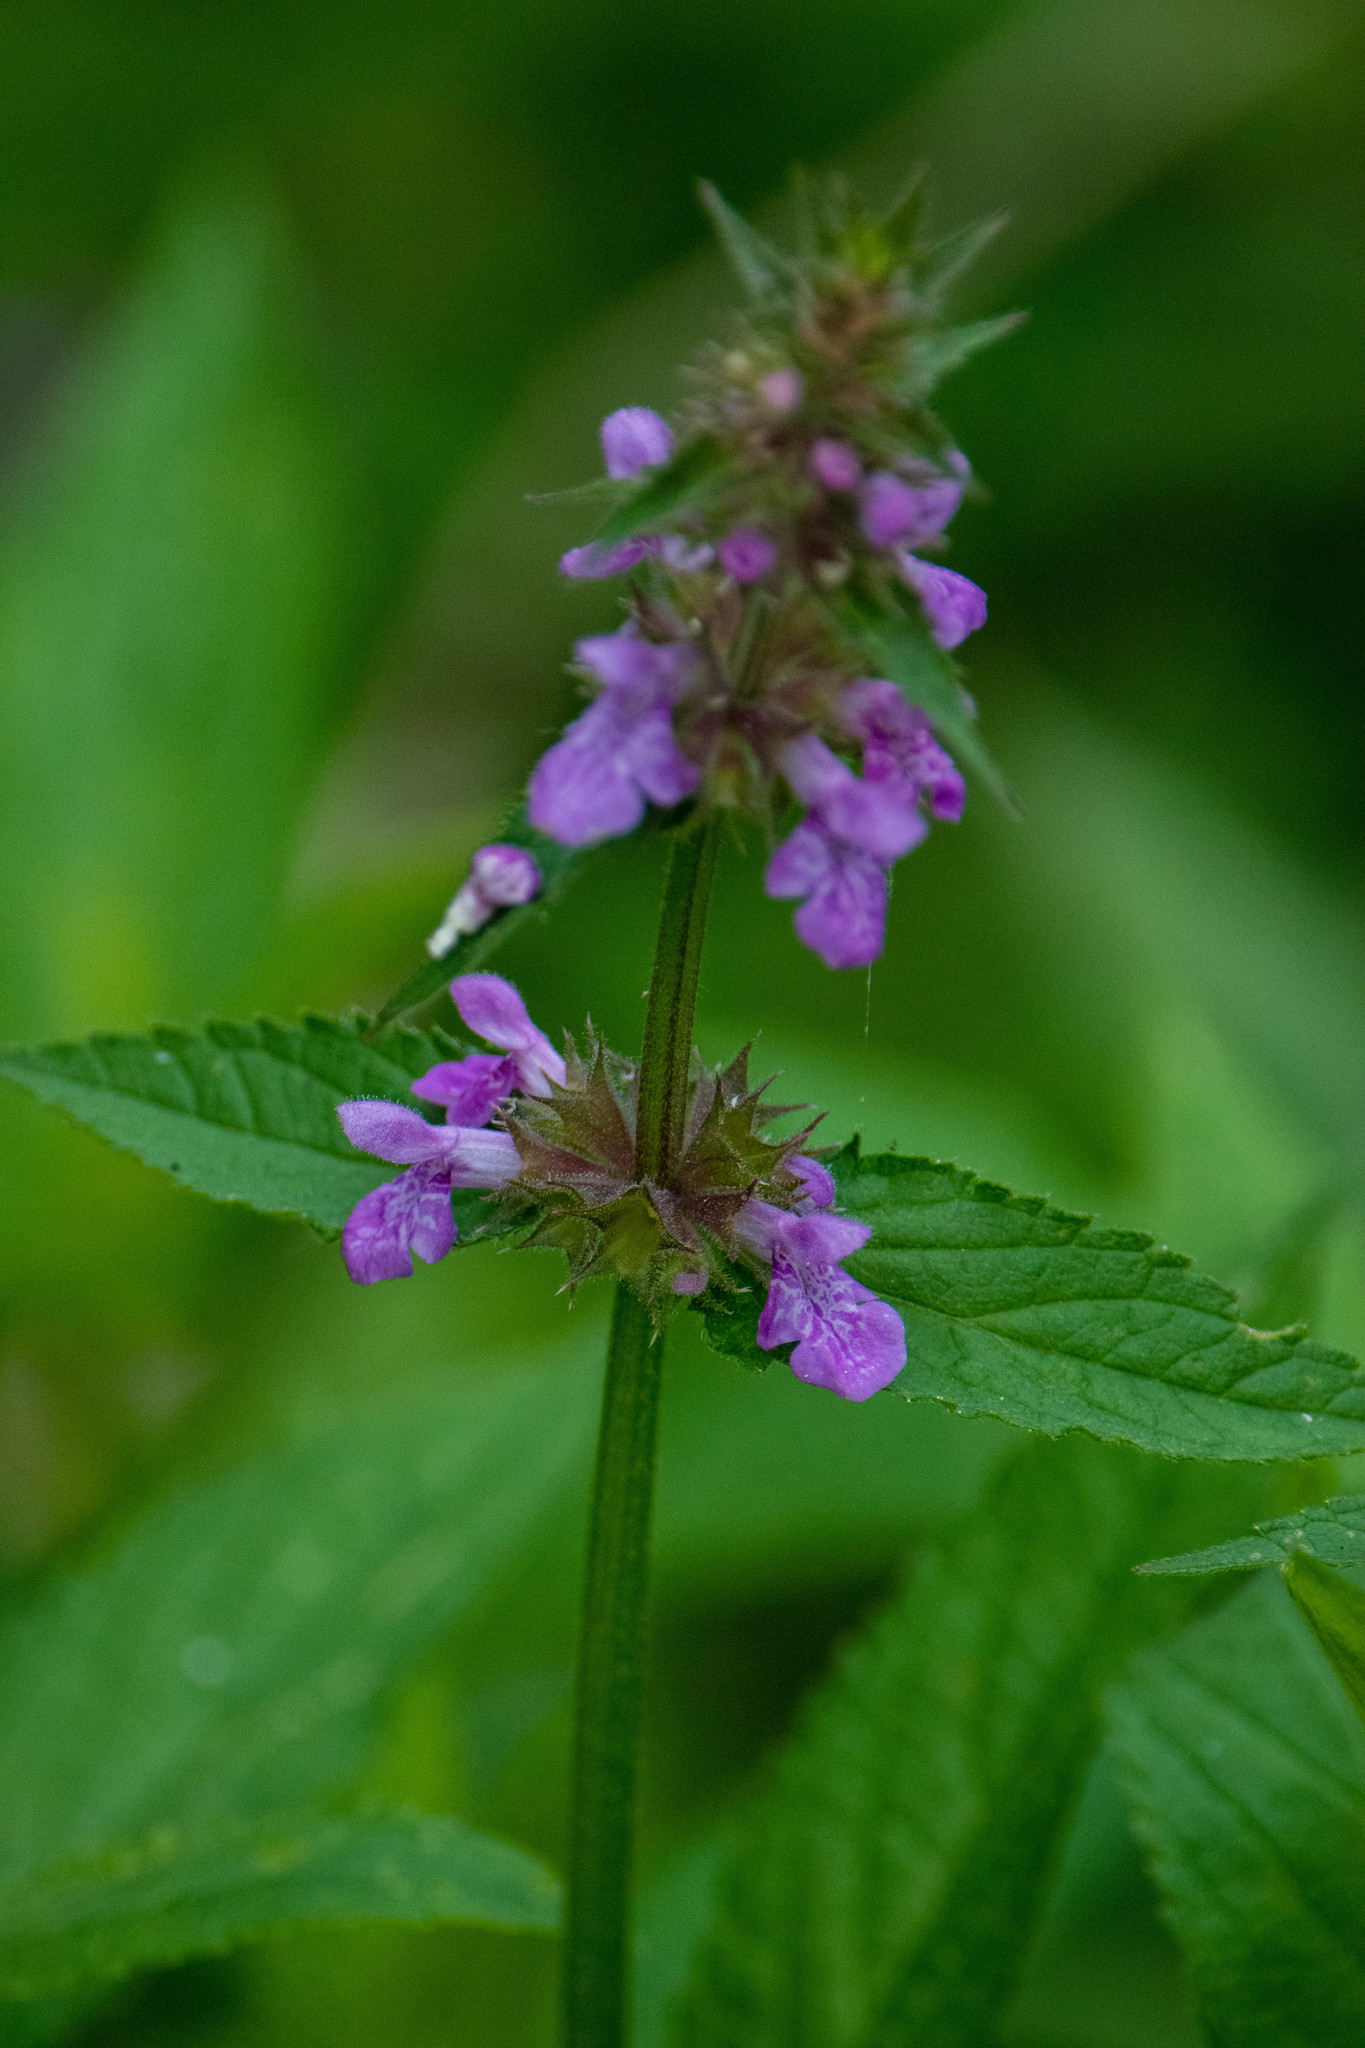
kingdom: Plantae
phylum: Tracheophyta
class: Magnoliopsida
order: Lamiales
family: Lamiaceae
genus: Stachys
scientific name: Stachys palustris
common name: Marsh woundwort
